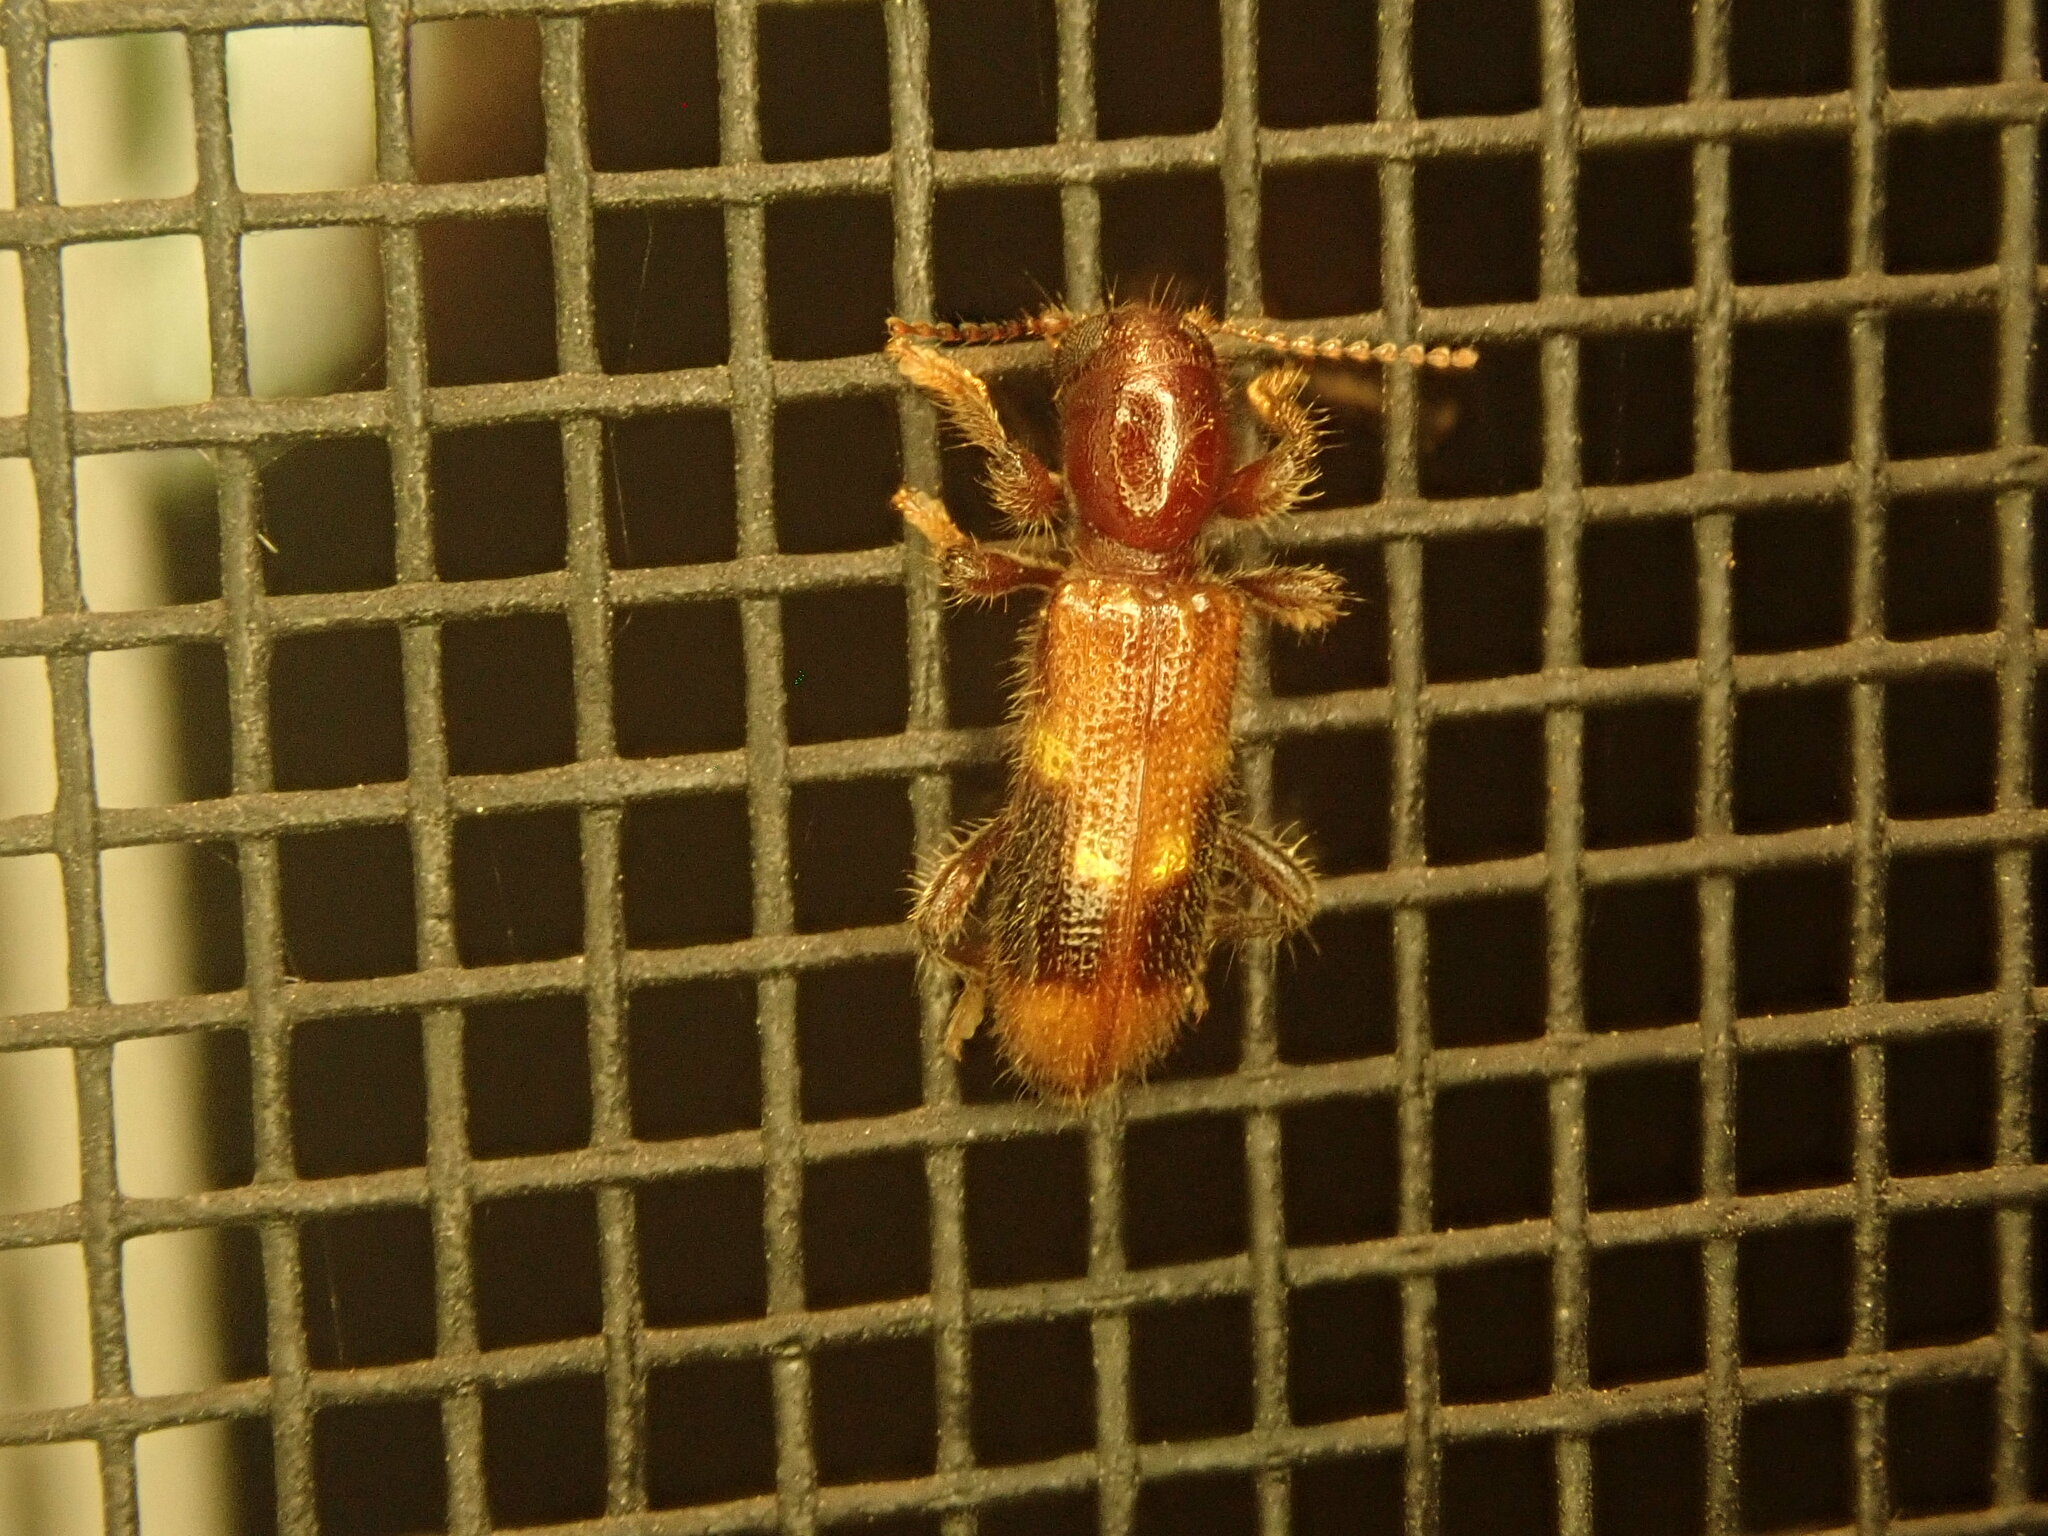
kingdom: Animalia
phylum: Arthropoda
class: Insecta
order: Coleoptera
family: Cleridae
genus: Priocera
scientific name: Priocera castanea
